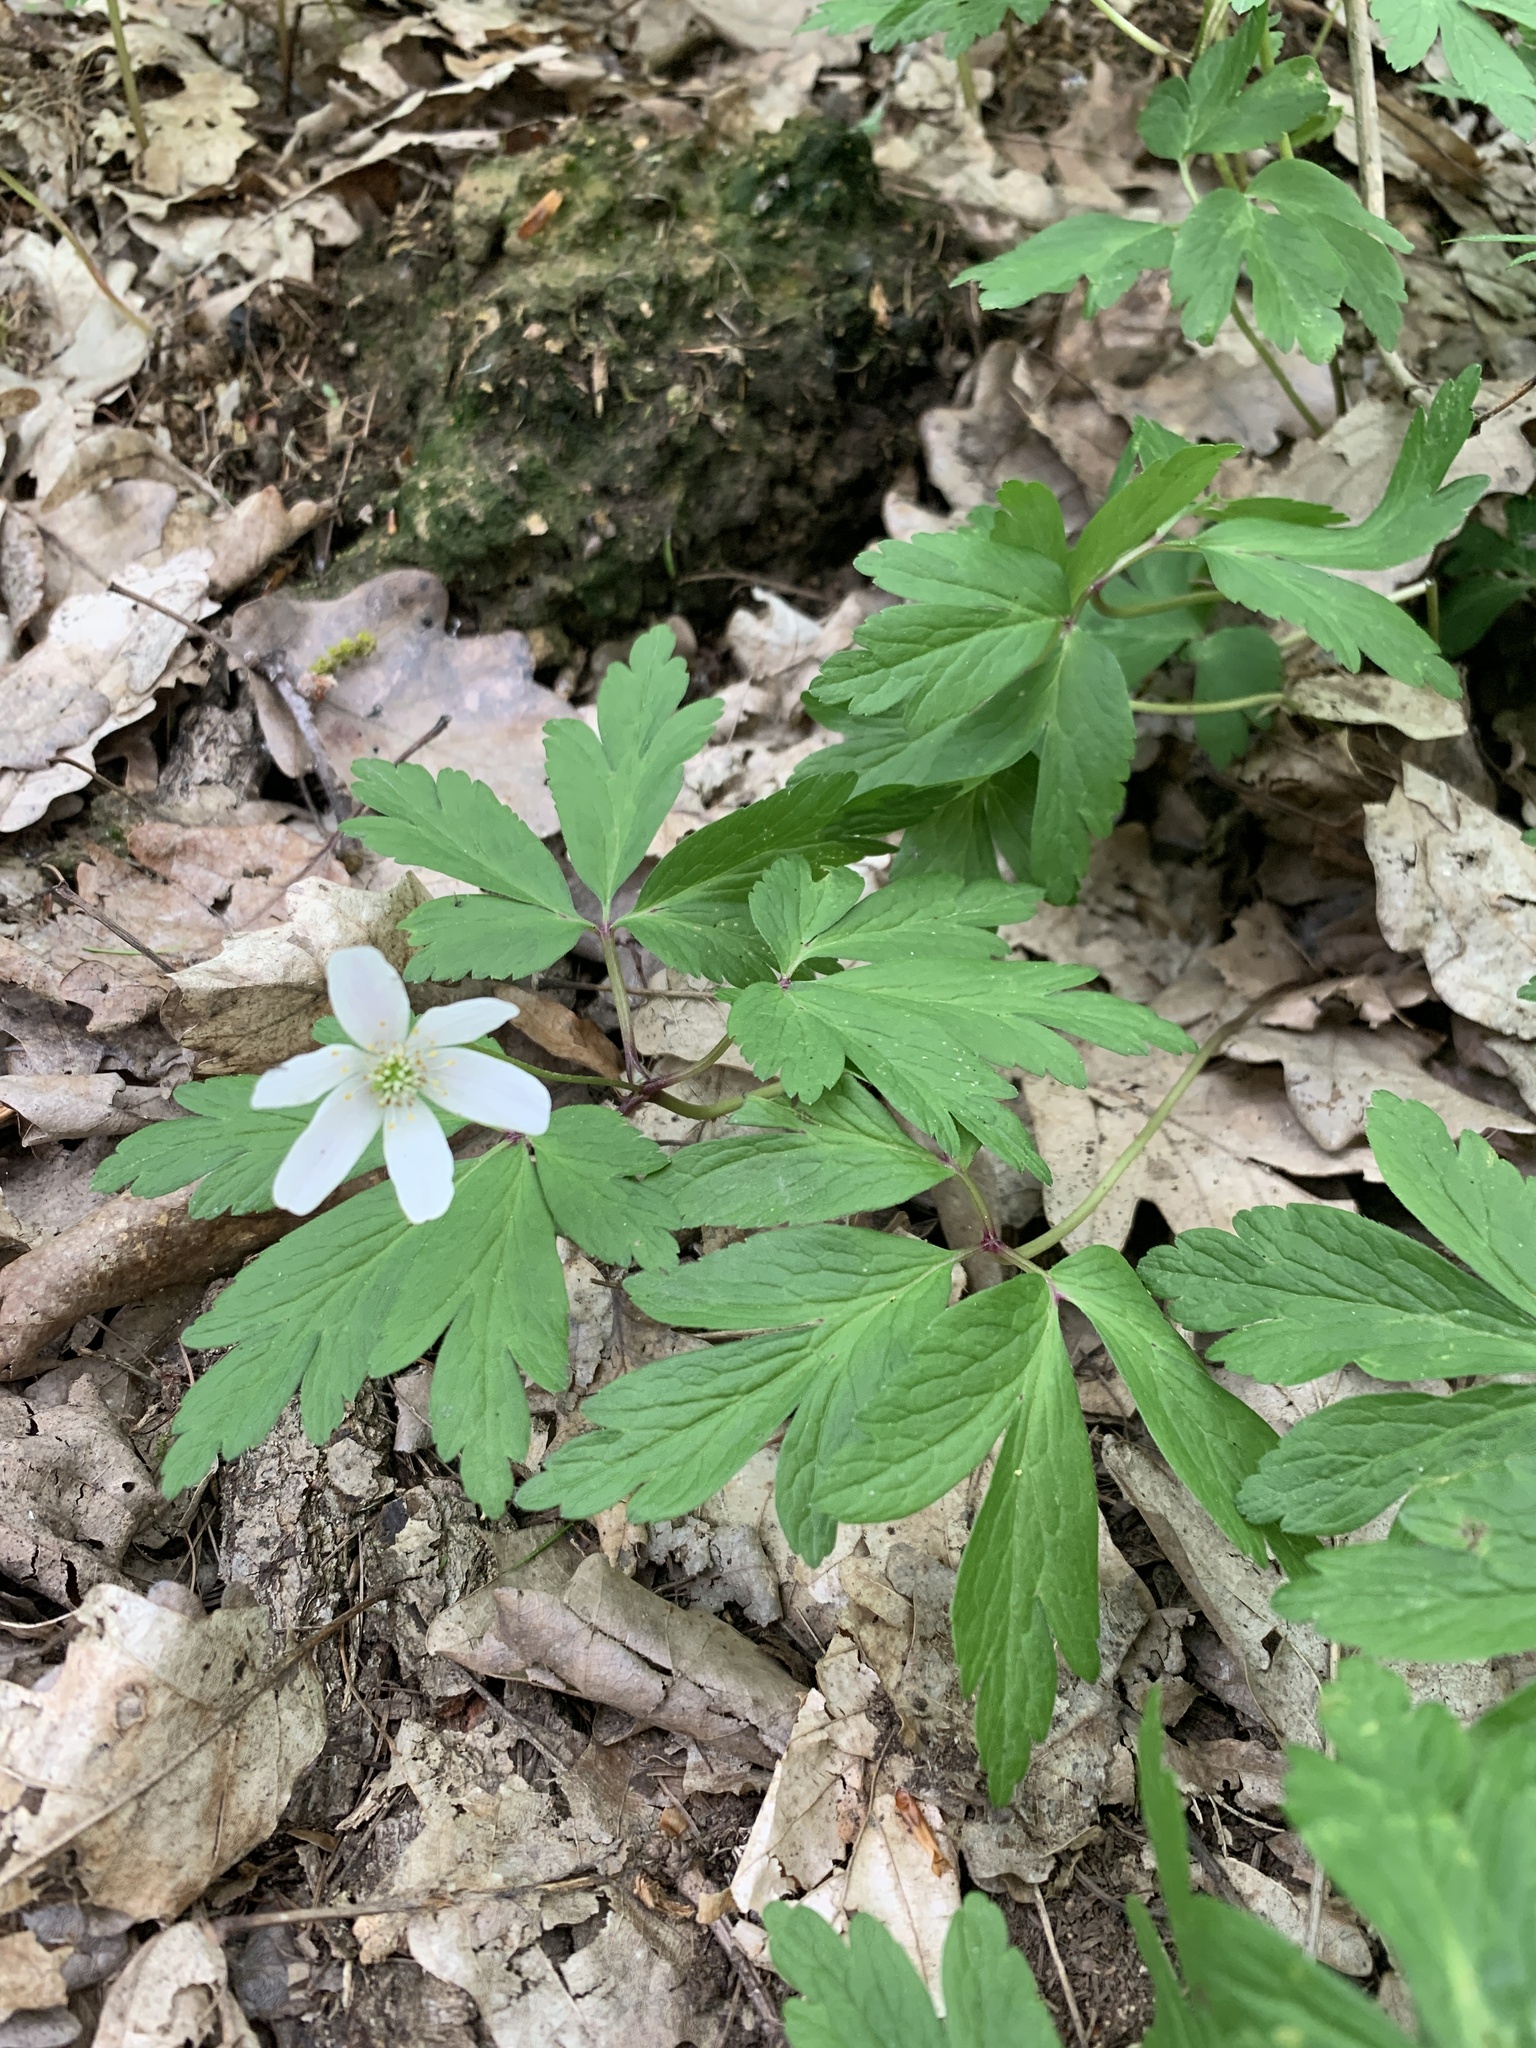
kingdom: Plantae
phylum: Tracheophyta
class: Magnoliopsida
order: Ranunculales
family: Ranunculaceae
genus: Anemone
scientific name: Anemone nemorosa
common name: Wood anemone
